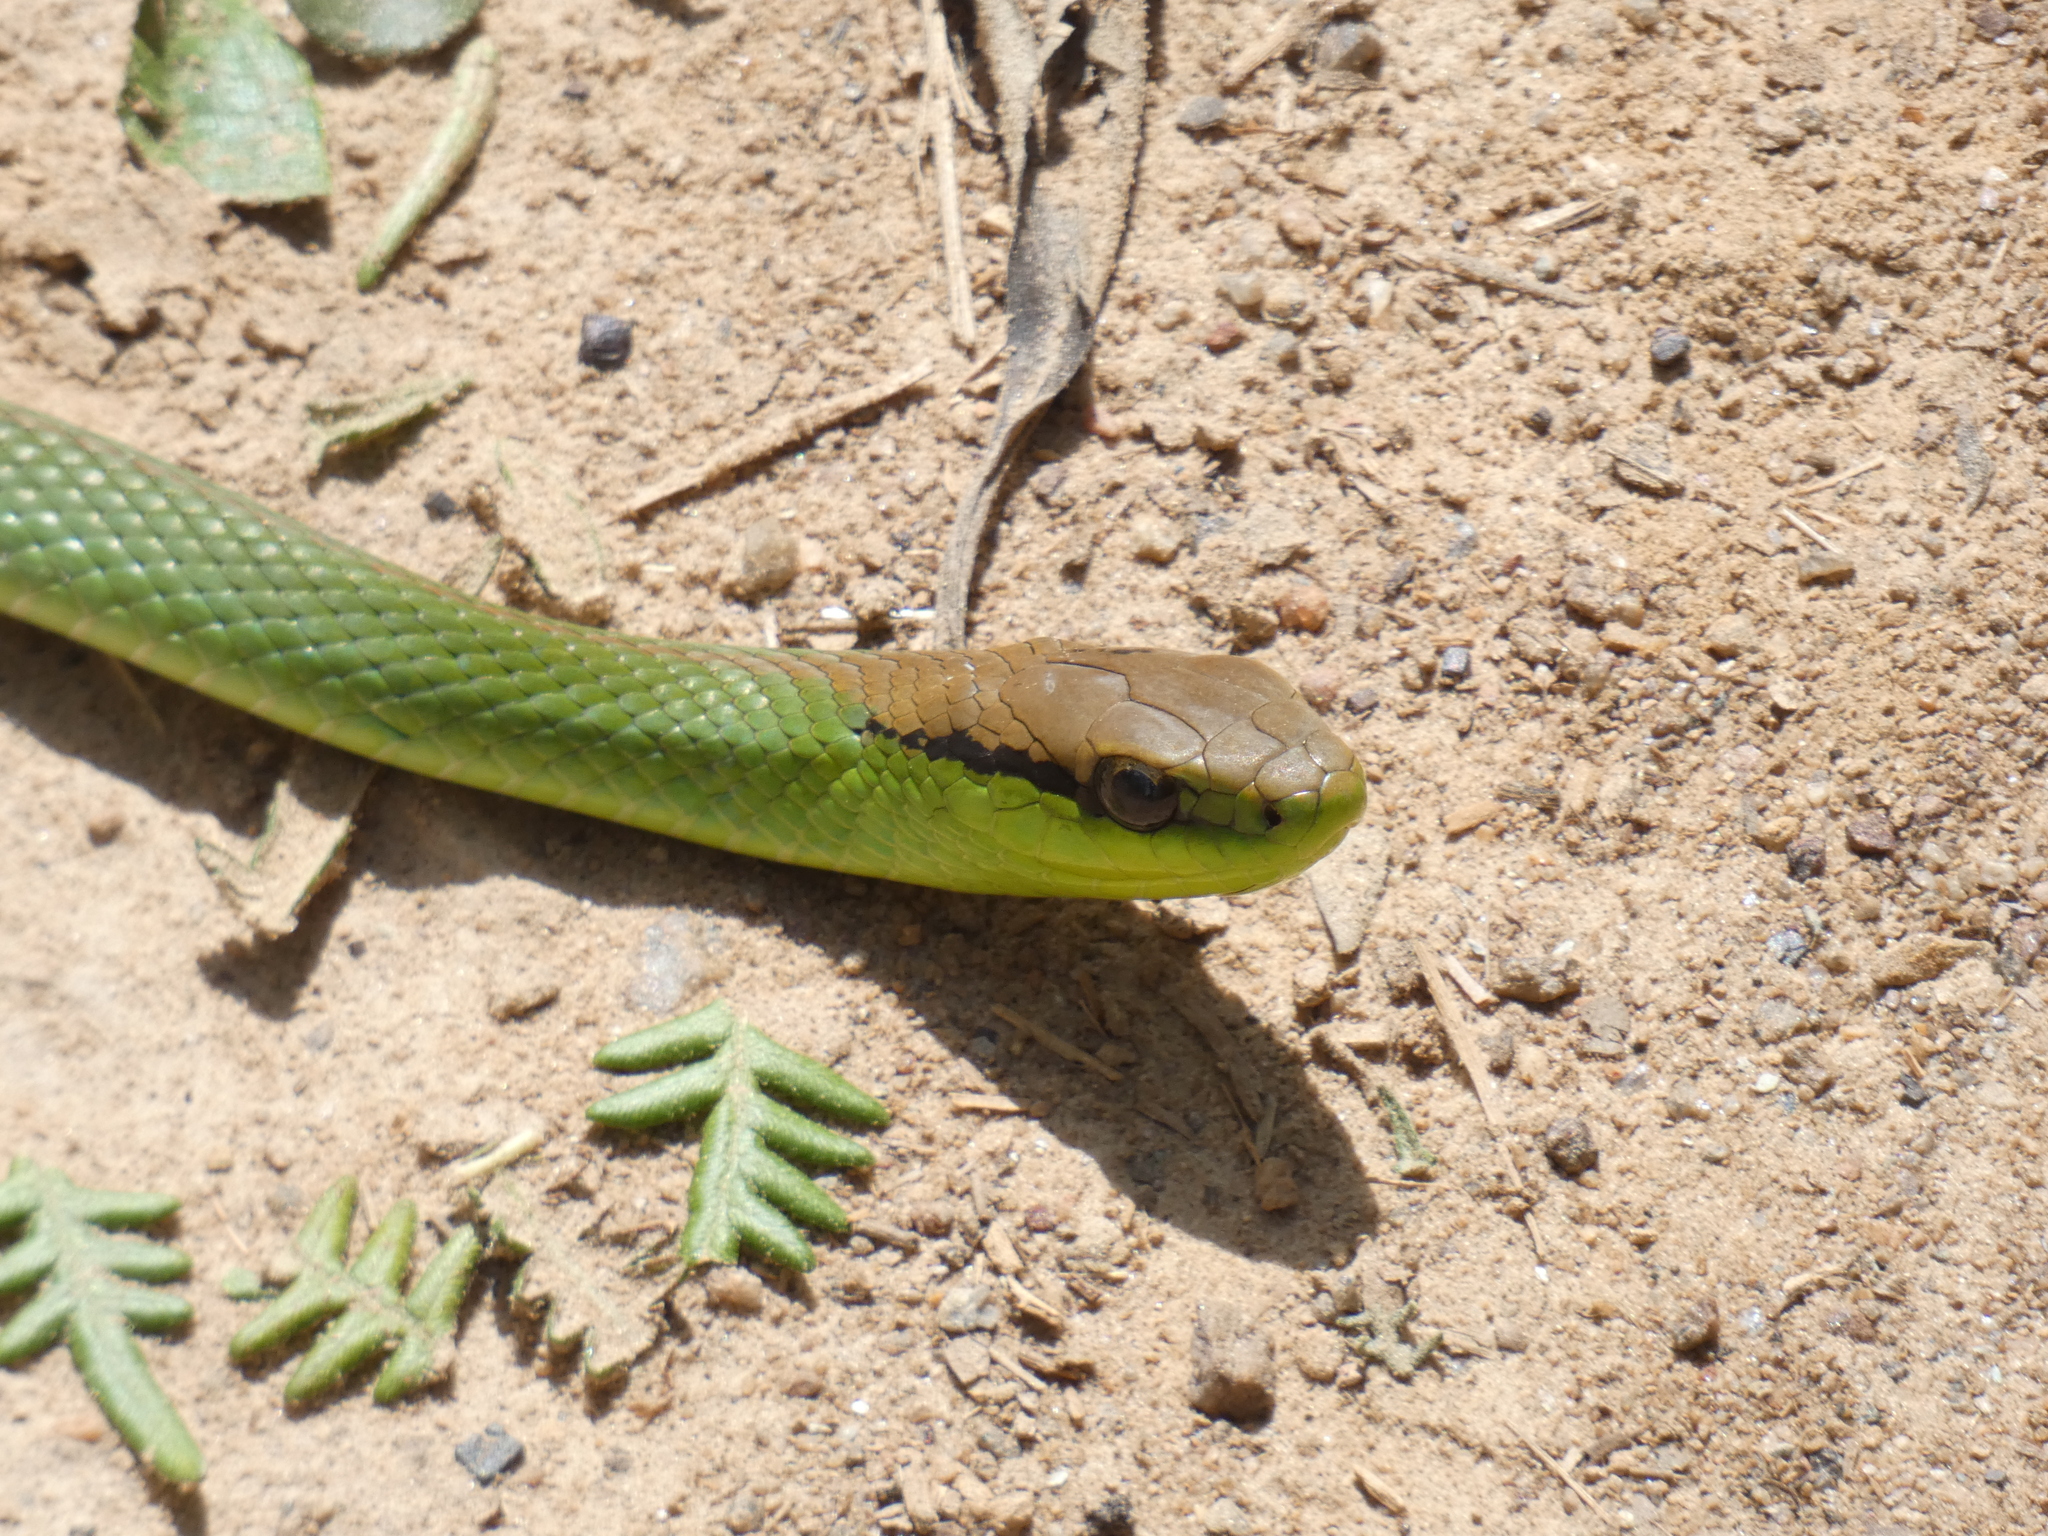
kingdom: Animalia
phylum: Chordata
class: Squamata
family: Colubridae
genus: Philodryas
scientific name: Philodryas olfersii
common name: Lichtenstein's green racer
